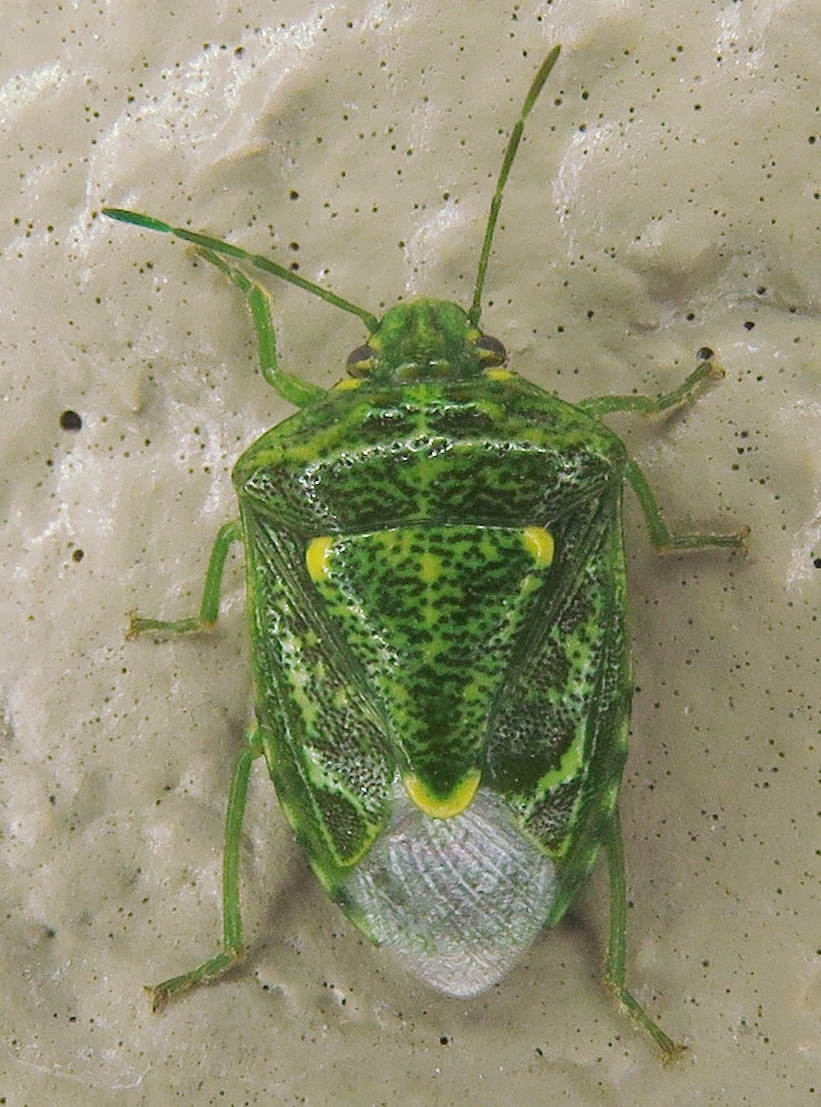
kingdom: Animalia
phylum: Arthropoda
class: Insecta
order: Hemiptera
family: Pentatomidae
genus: Banasa
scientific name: Banasa euchlora
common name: Cedar berry bug
